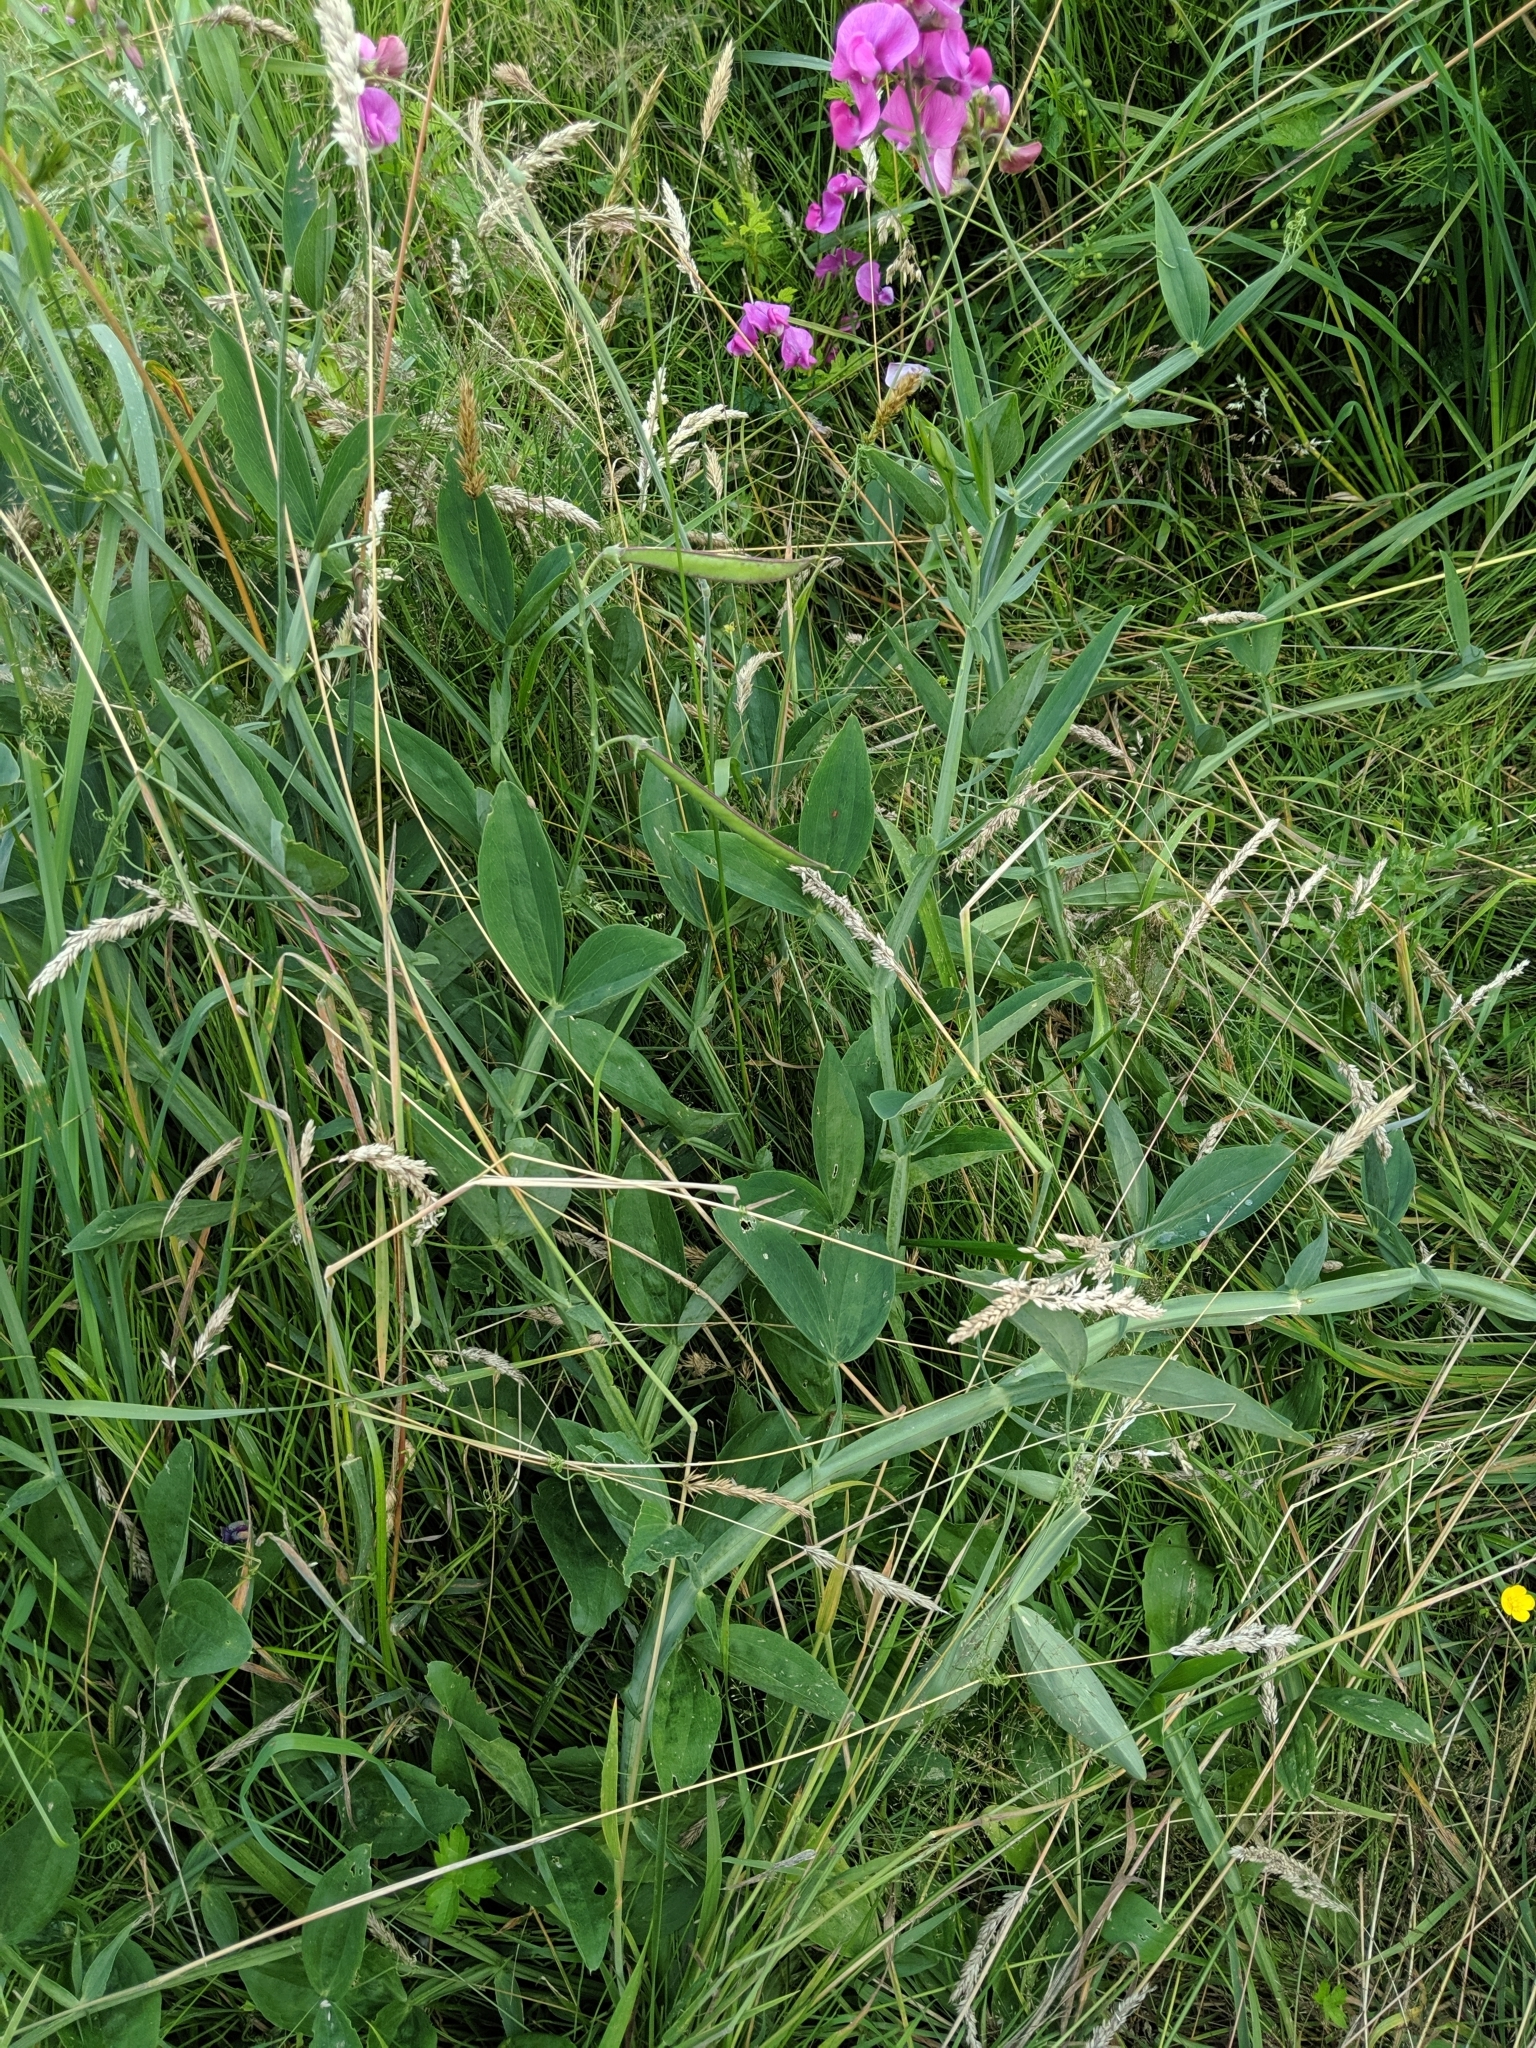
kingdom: Plantae
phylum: Tracheophyta
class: Magnoliopsida
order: Fabales
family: Fabaceae
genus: Lathyrus
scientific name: Lathyrus latifolius
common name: Perennial pea
